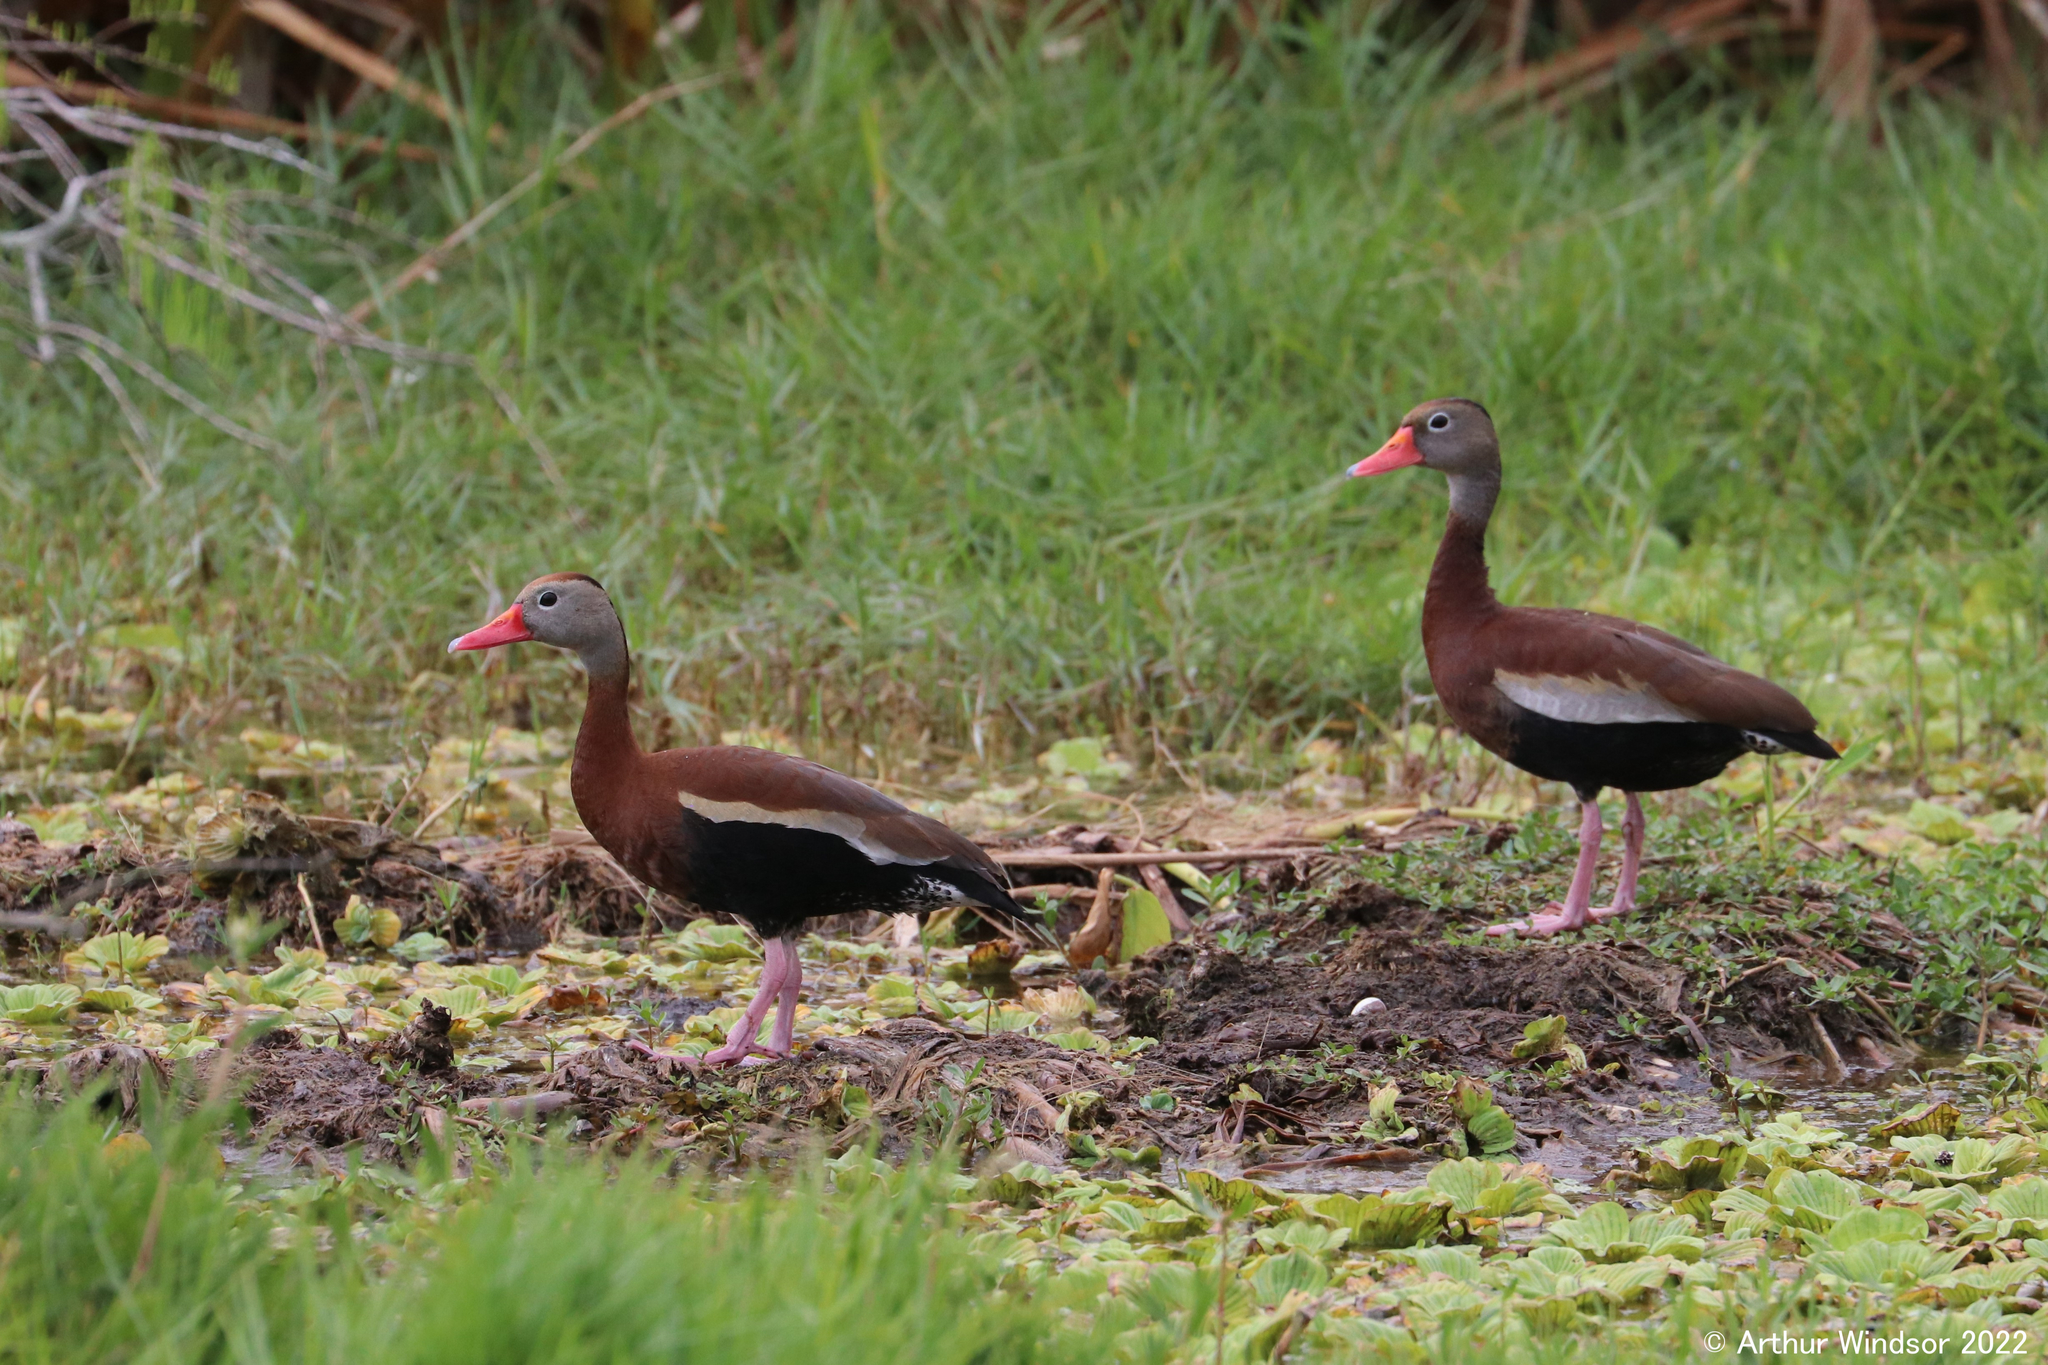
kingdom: Animalia
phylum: Chordata
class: Aves
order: Anseriformes
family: Anatidae
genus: Dendrocygna
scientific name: Dendrocygna autumnalis
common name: Black-bellied whistling duck
